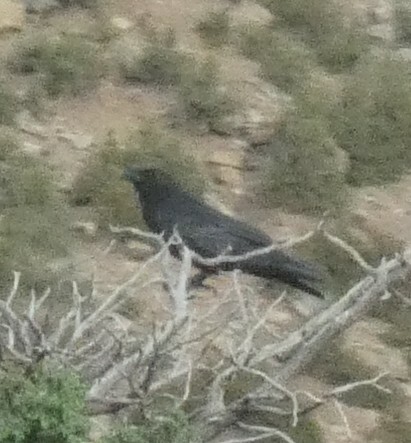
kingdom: Animalia
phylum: Chordata
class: Aves
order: Passeriformes
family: Corvidae
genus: Corvus
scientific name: Corvus corax
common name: Common raven
